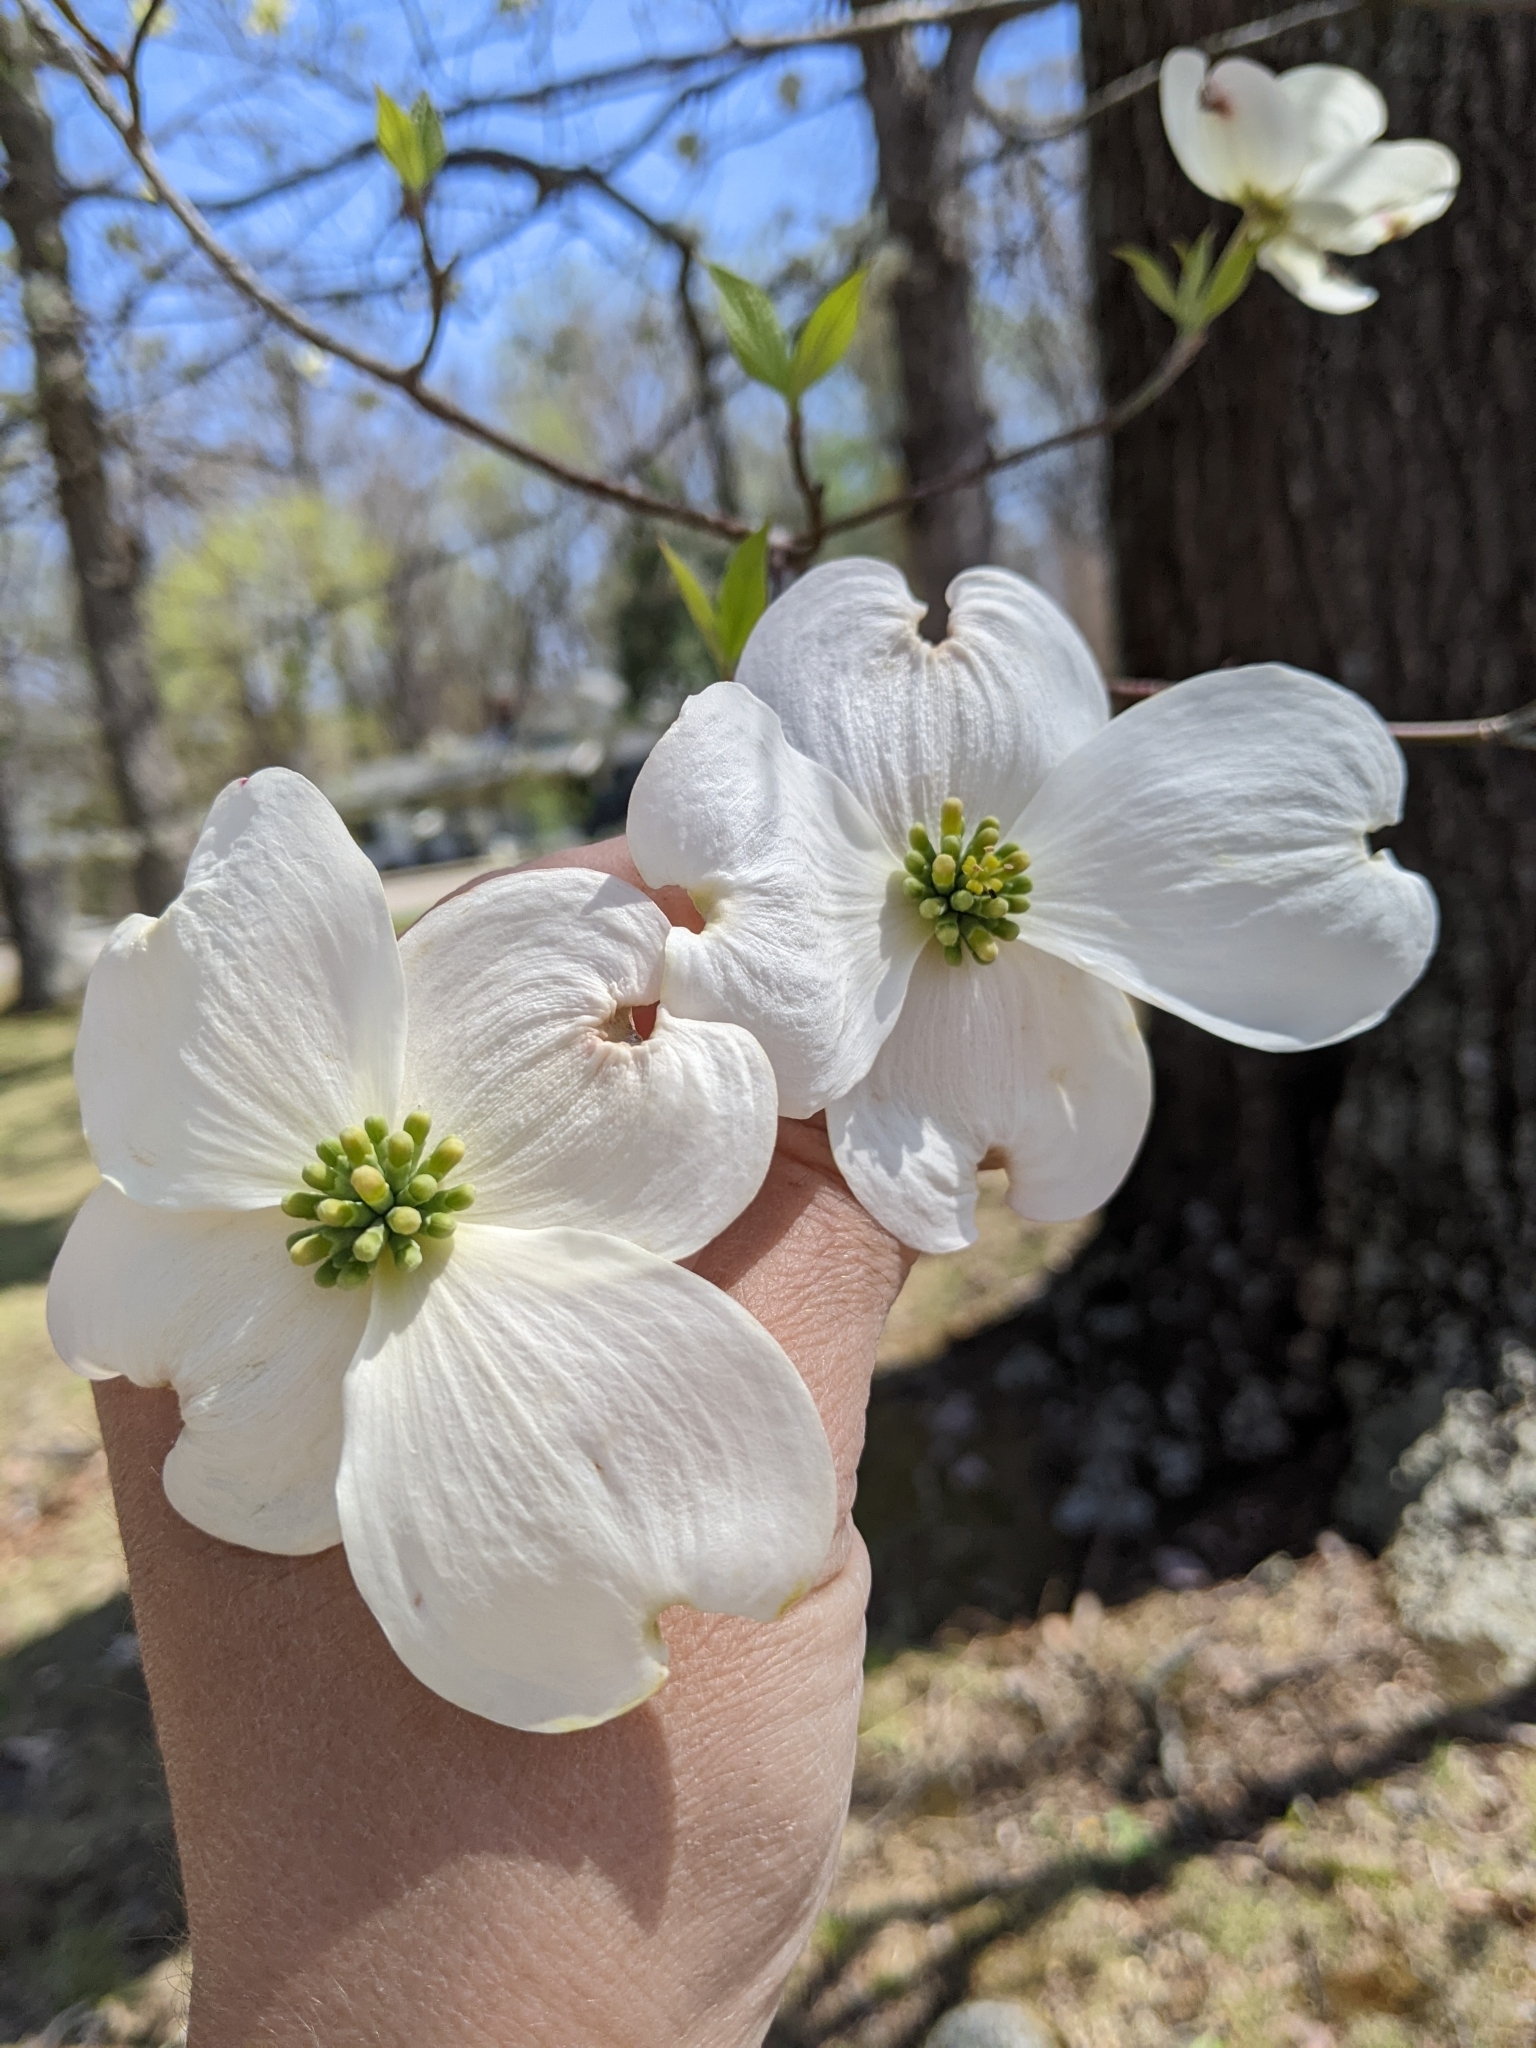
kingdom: Plantae
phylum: Tracheophyta
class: Magnoliopsida
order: Cornales
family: Cornaceae
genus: Cornus
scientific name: Cornus florida
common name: Flowering dogwood
